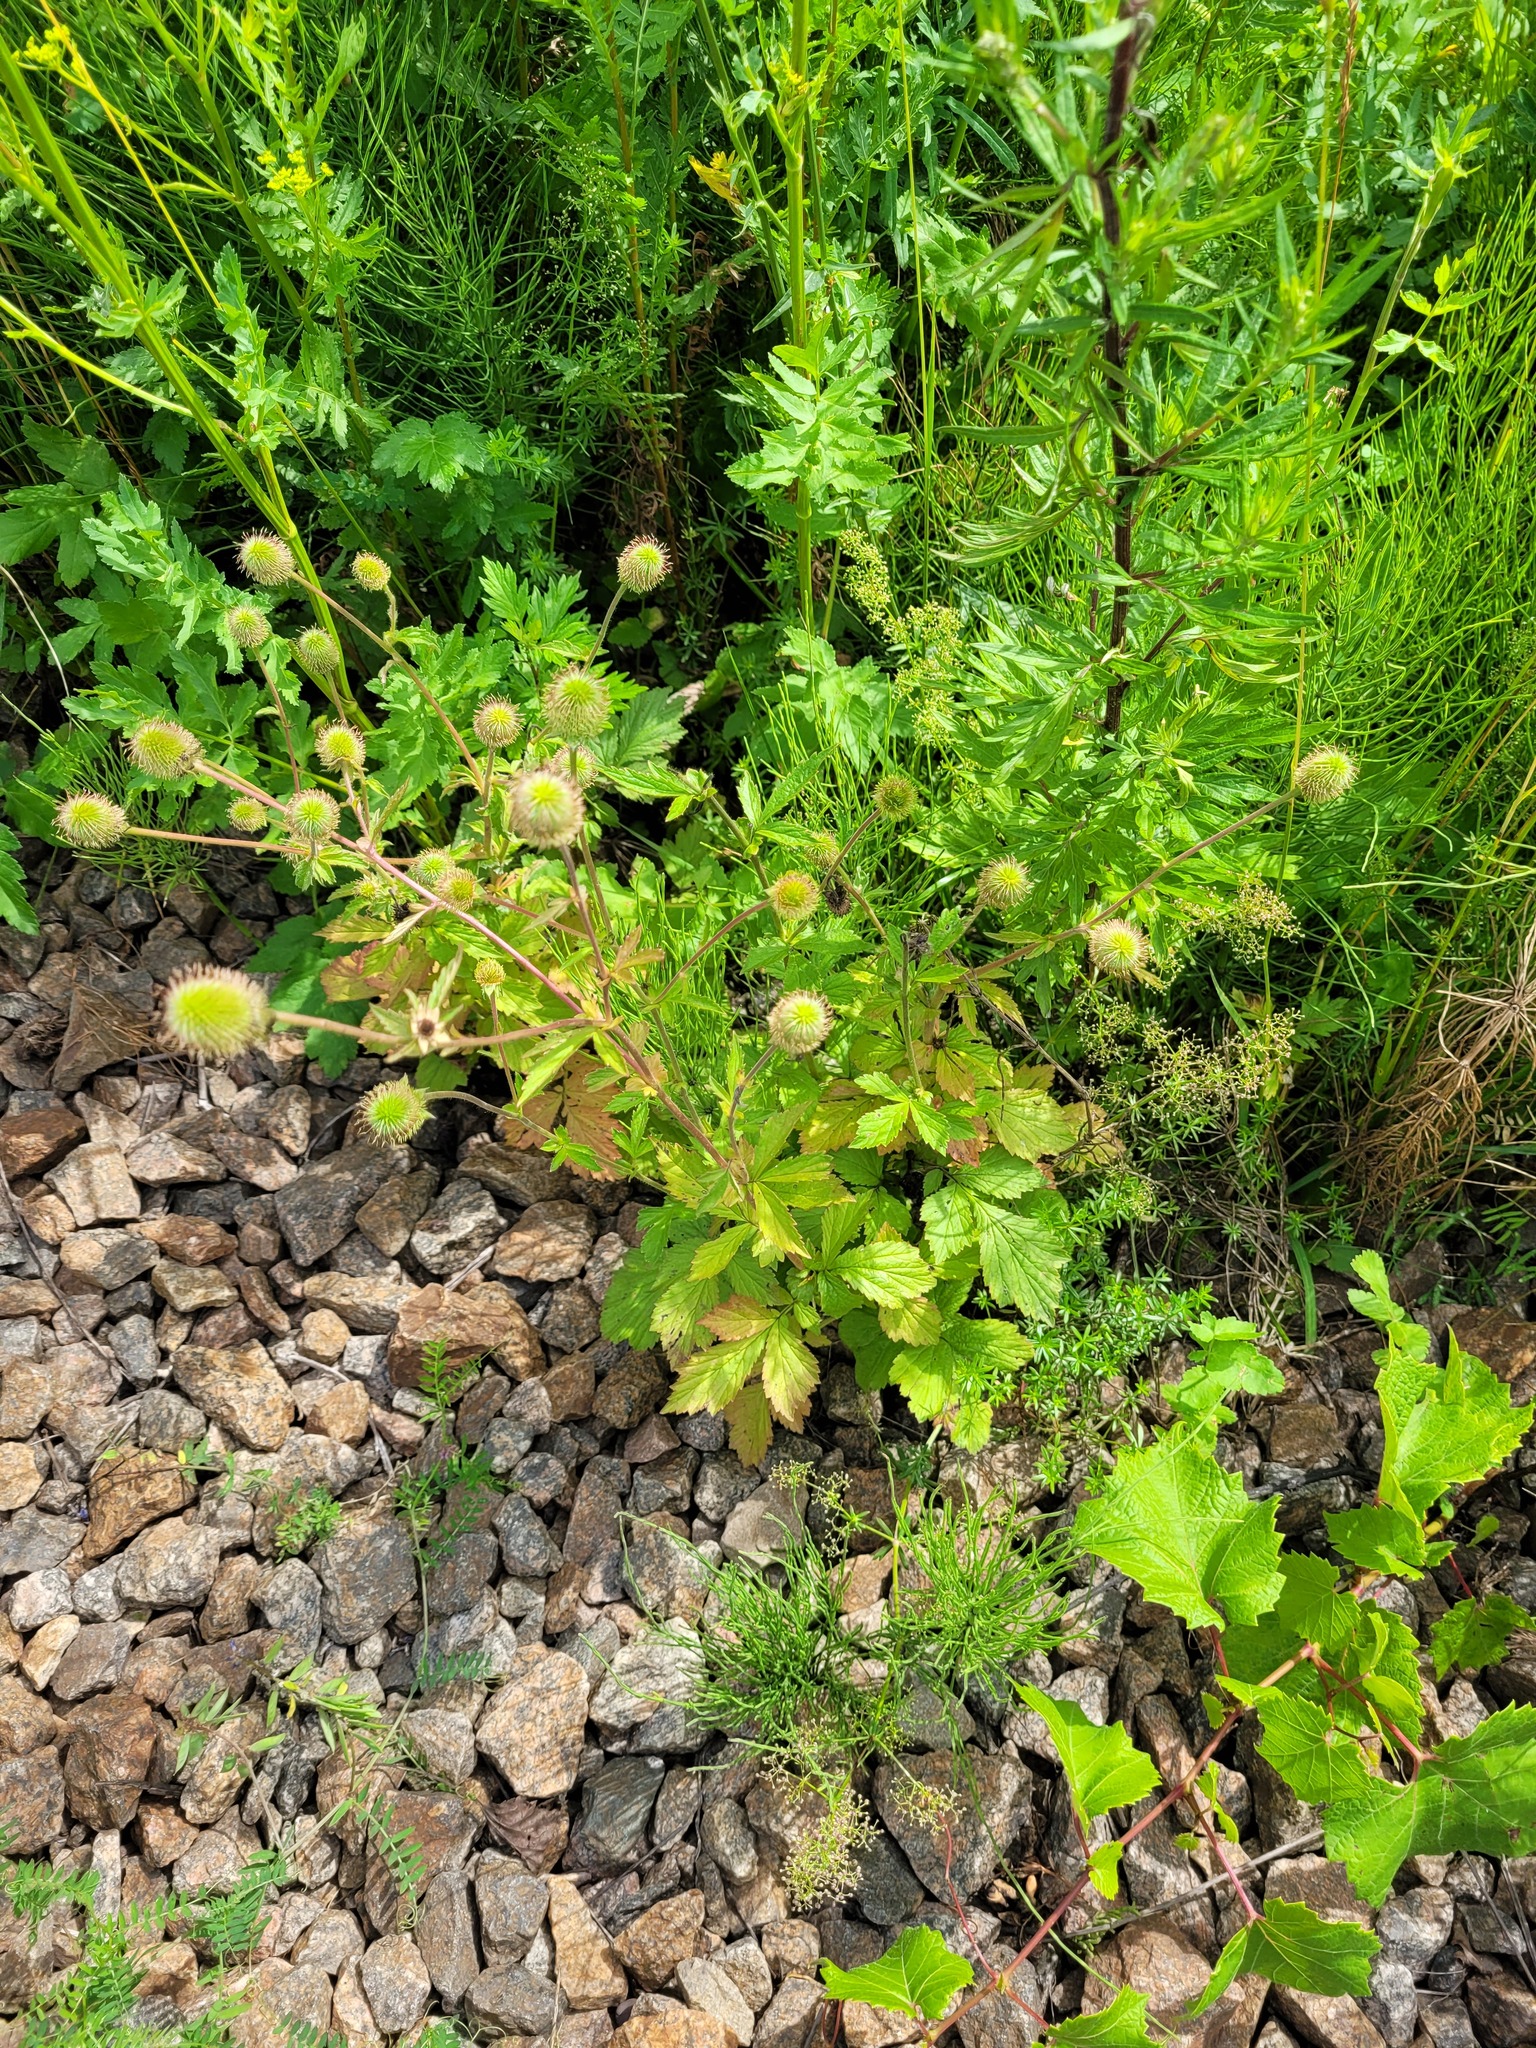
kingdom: Plantae
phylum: Tracheophyta
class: Magnoliopsida
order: Rosales
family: Rosaceae
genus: Geum
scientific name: Geum aleppicum
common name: Yellow avens
